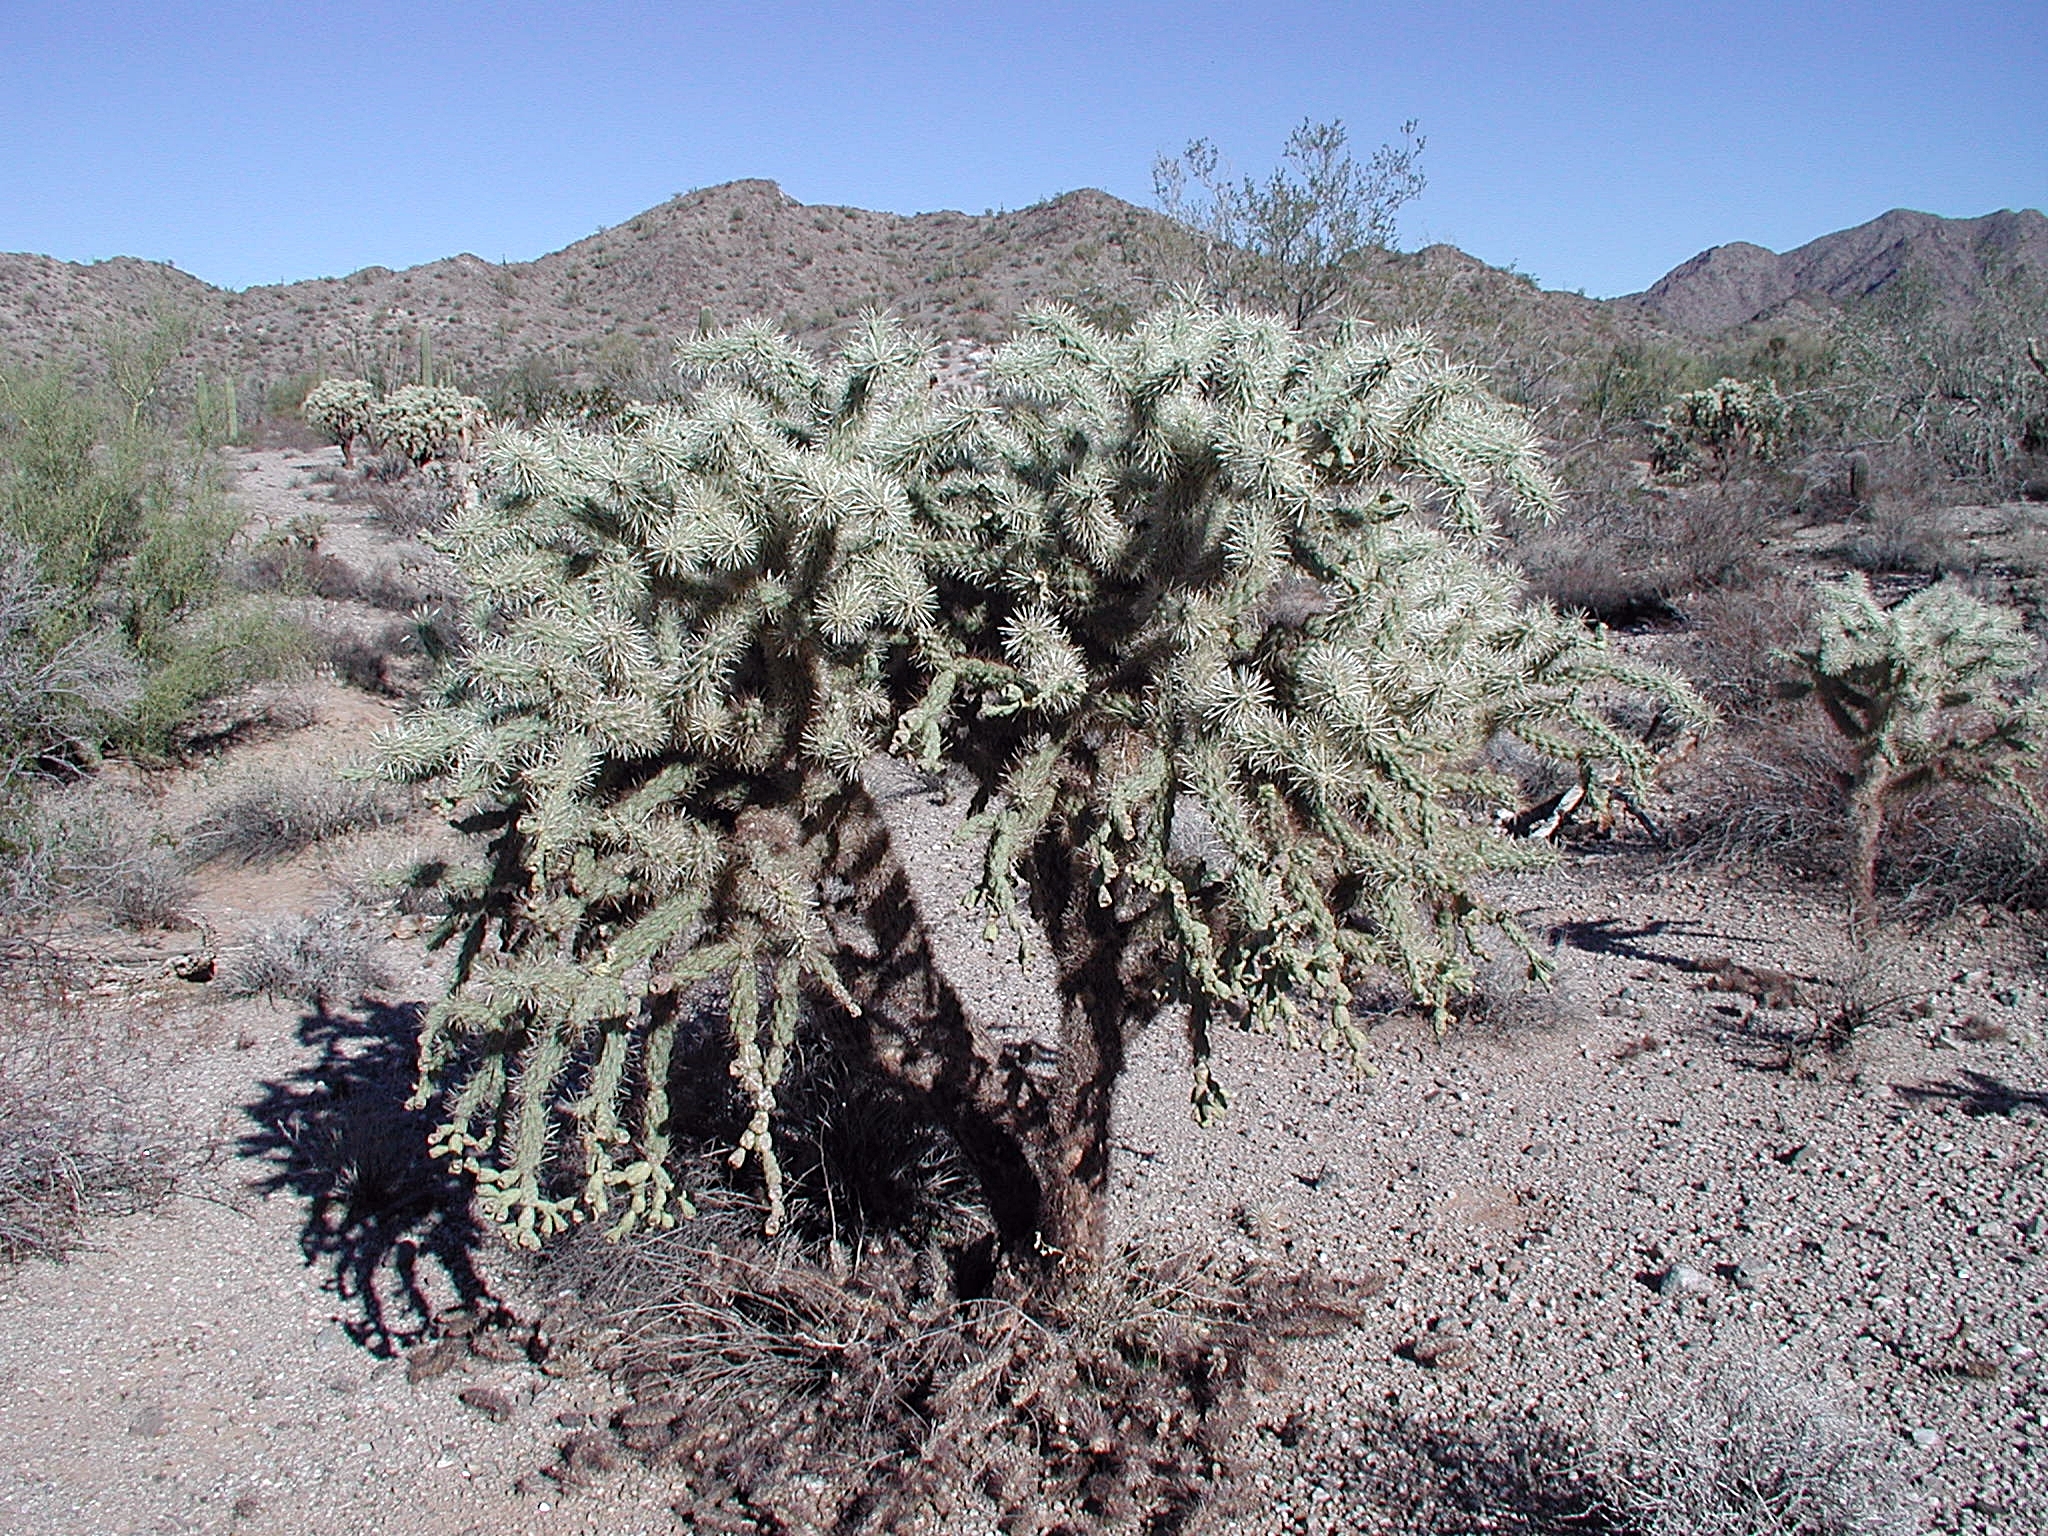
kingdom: Plantae
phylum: Tracheophyta
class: Magnoliopsida
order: Caryophyllales
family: Cactaceae
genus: Cylindropuntia
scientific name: Cylindropuntia fulgida
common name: Jumping cholla
